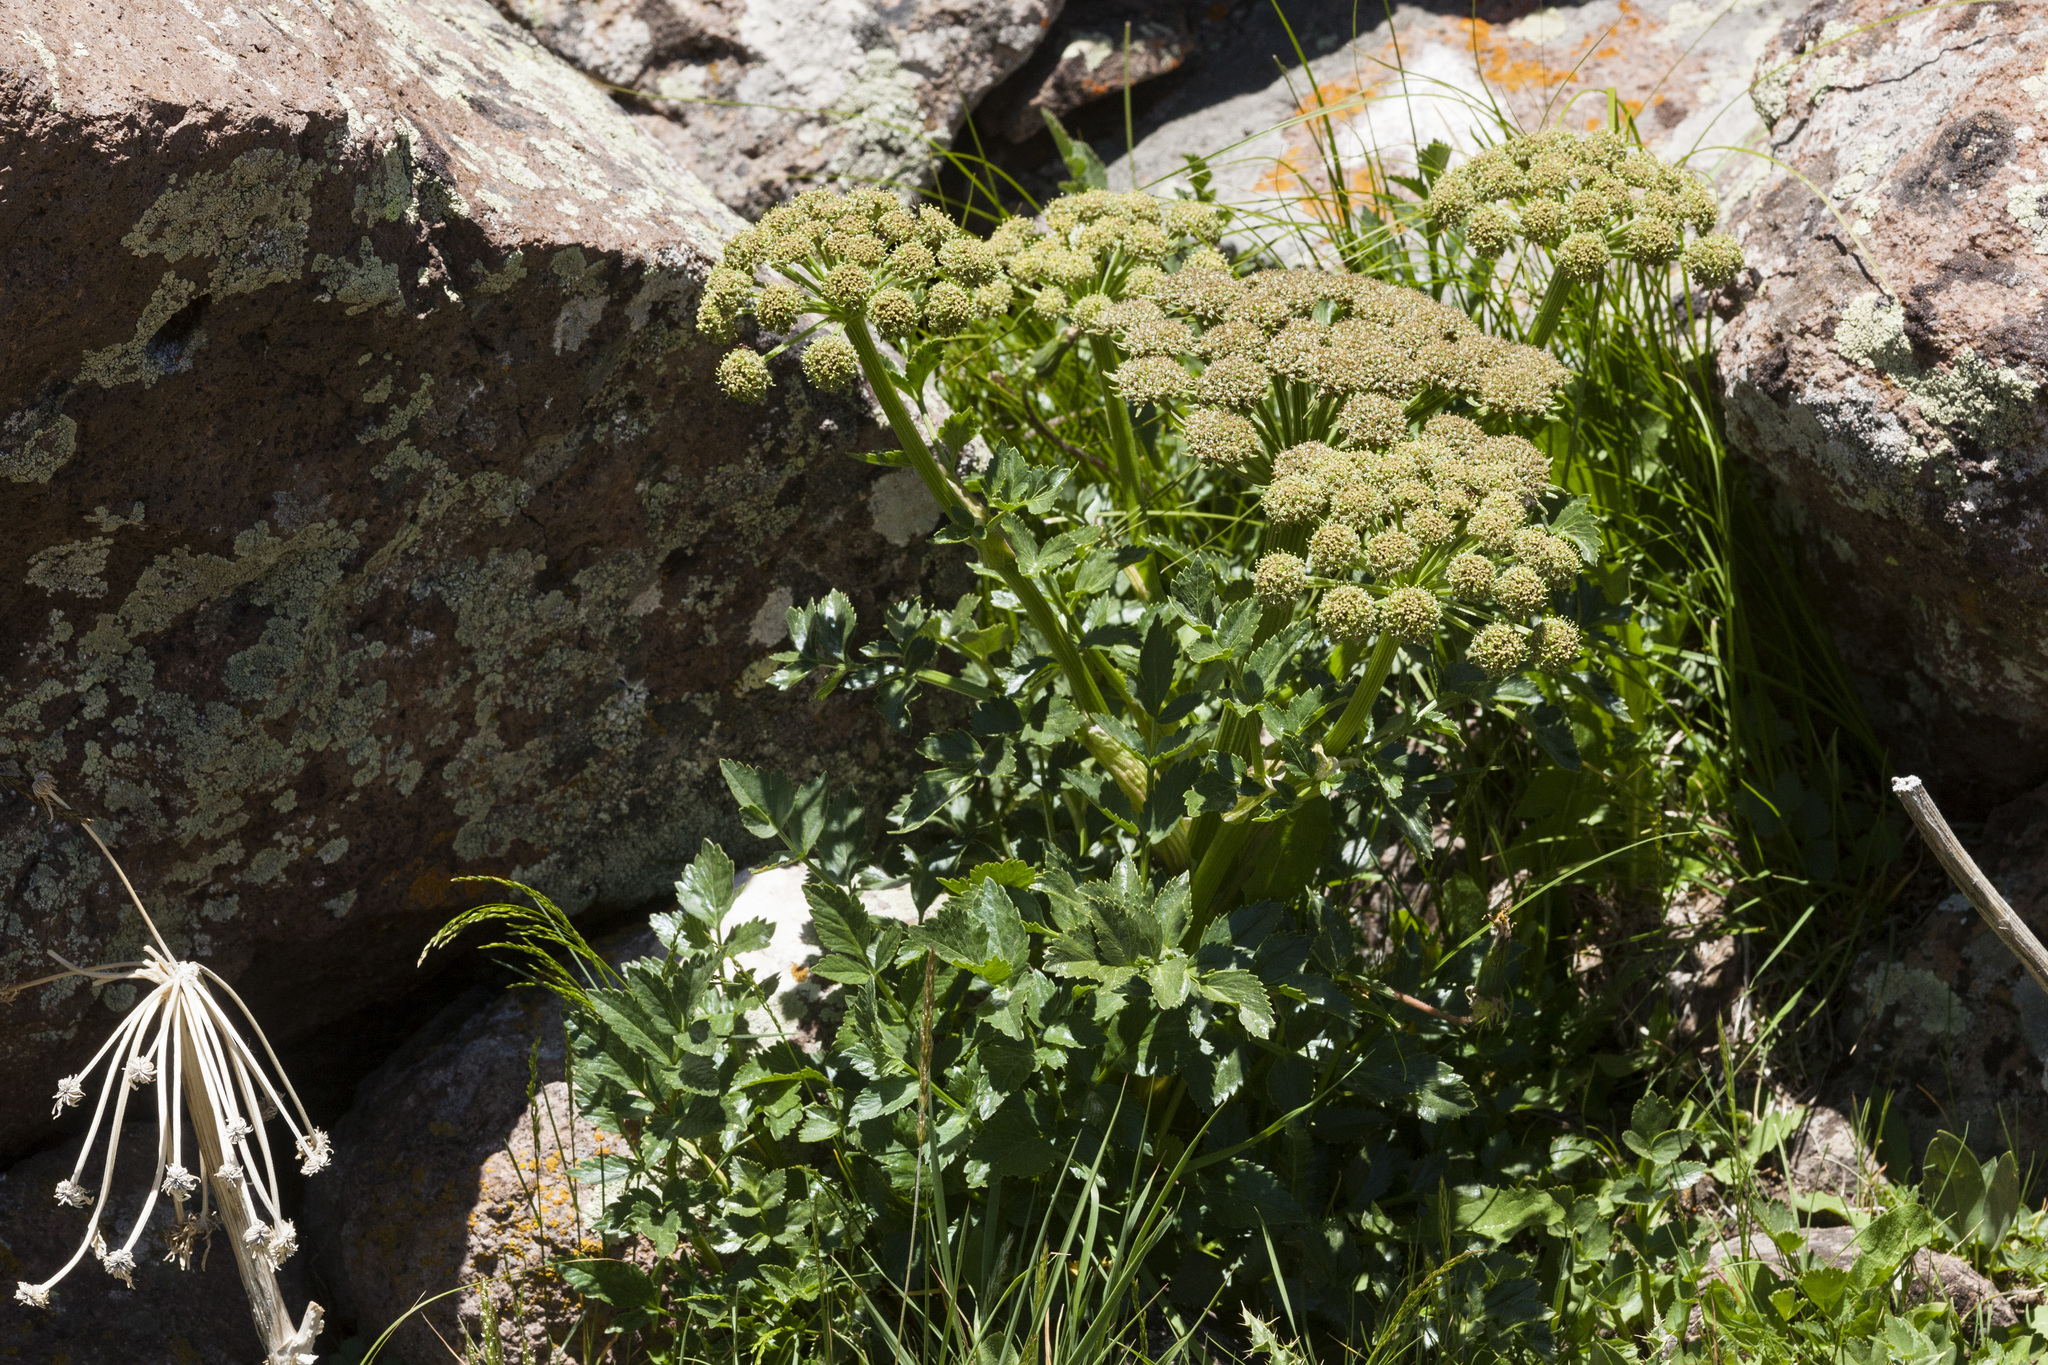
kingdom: Plantae
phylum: Tracheophyta
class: Magnoliopsida
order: Apiales
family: Apiaceae
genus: Angelica
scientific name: Angelica grayi
